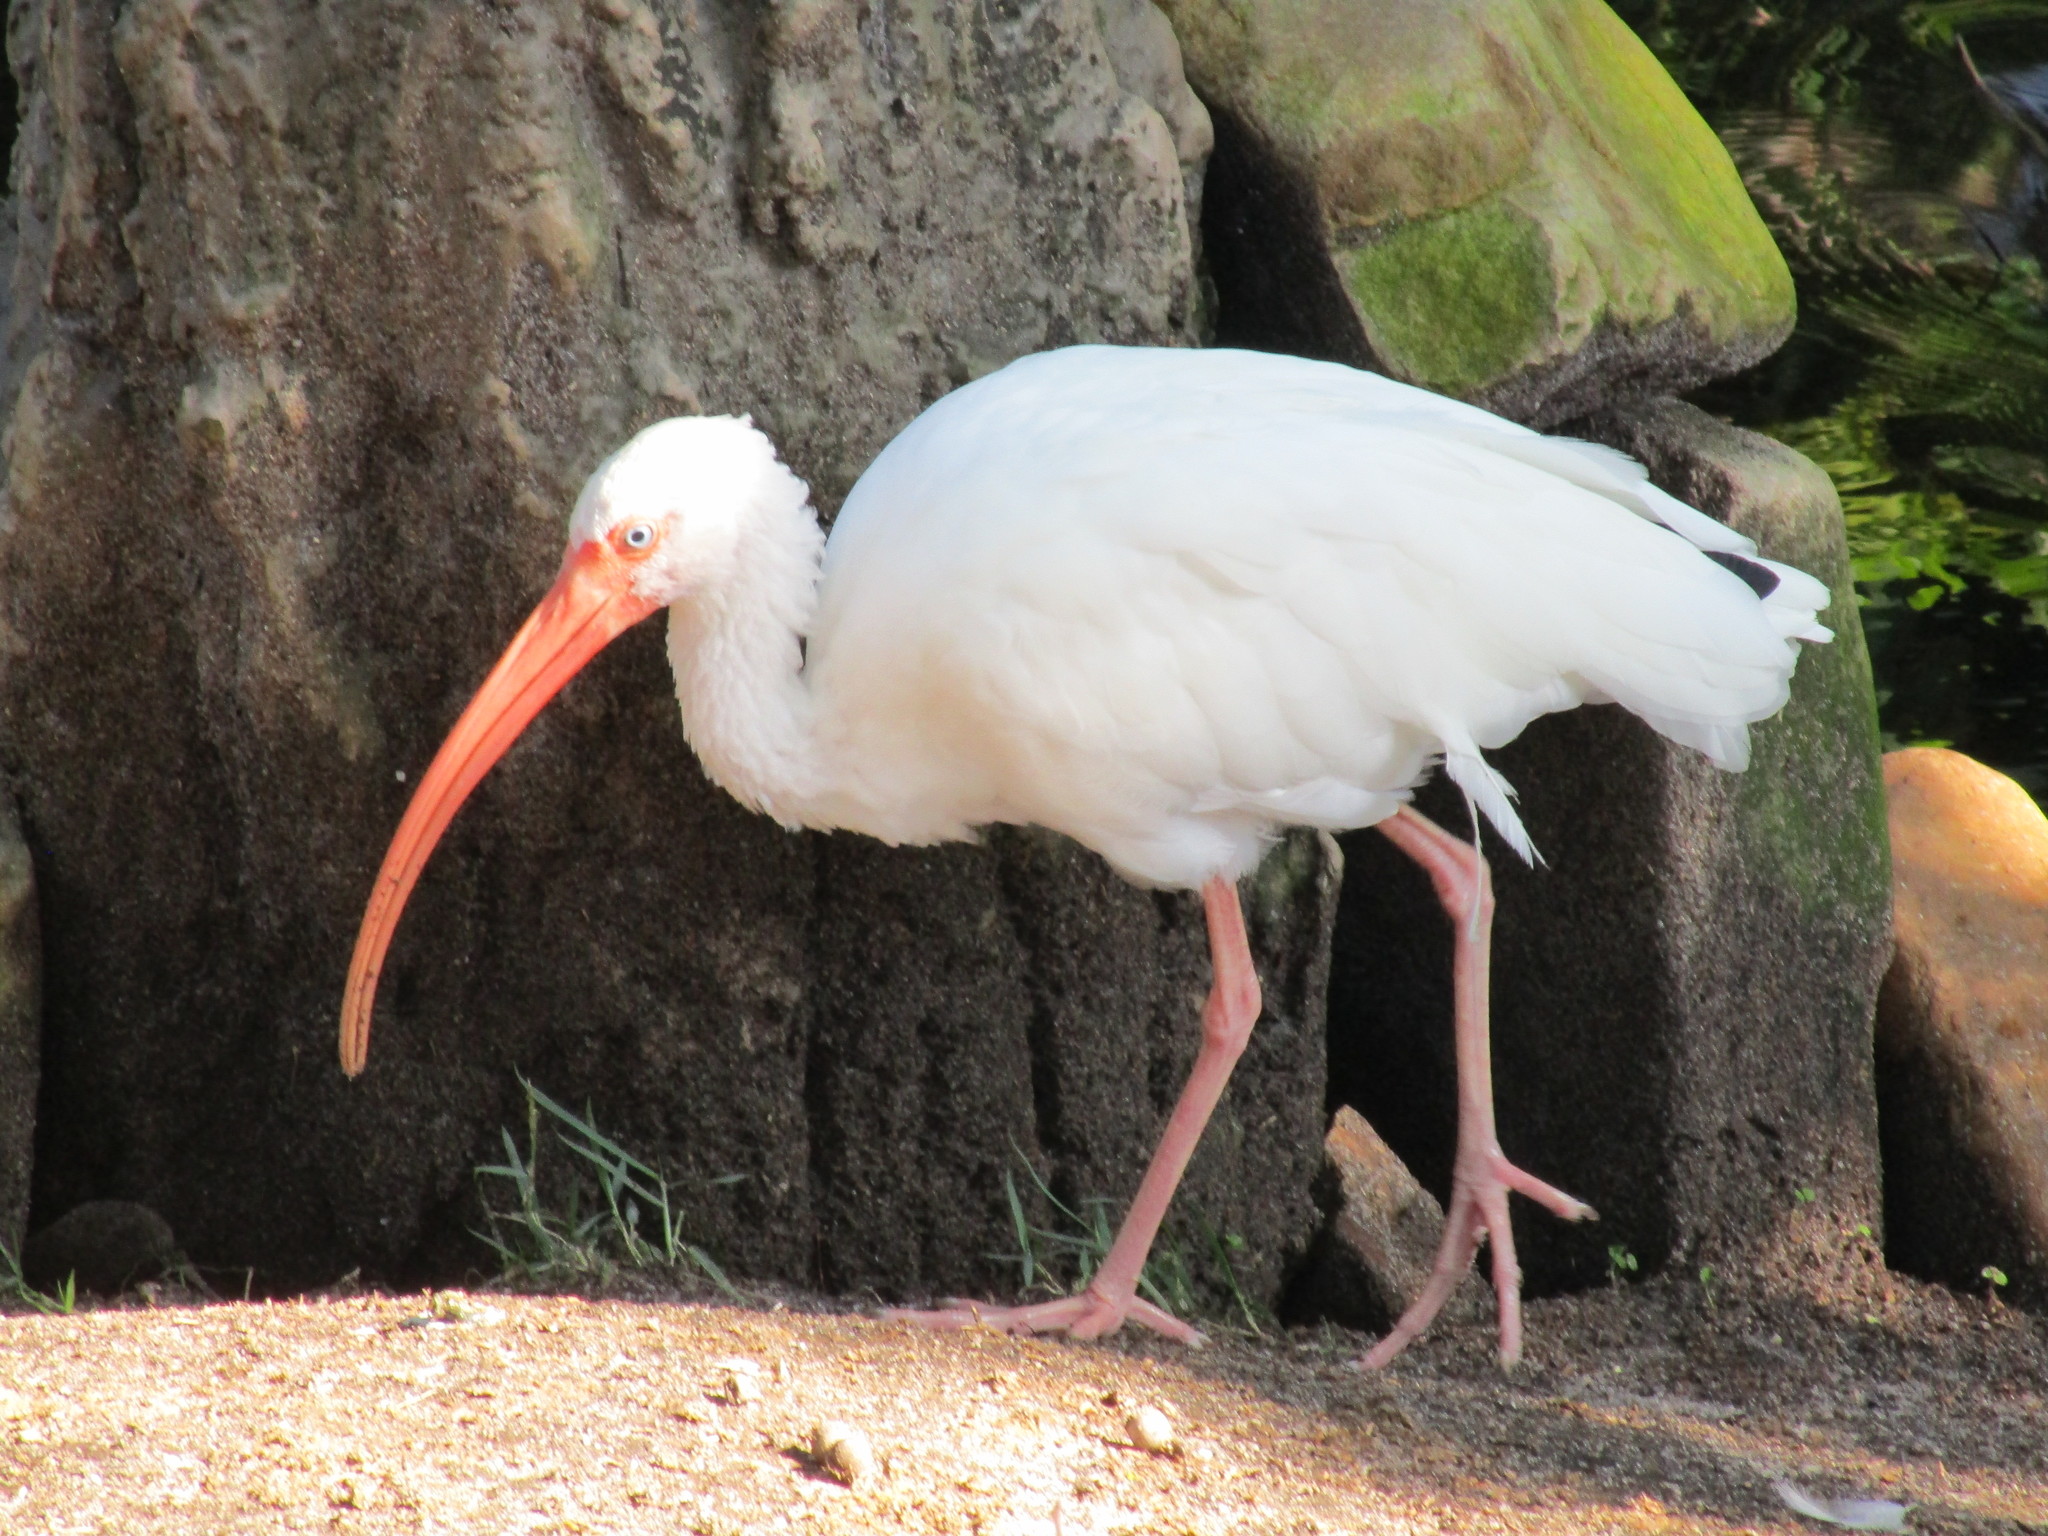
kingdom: Animalia
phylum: Chordata
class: Aves
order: Pelecaniformes
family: Threskiornithidae
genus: Eudocimus
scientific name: Eudocimus albus
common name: White ibis
